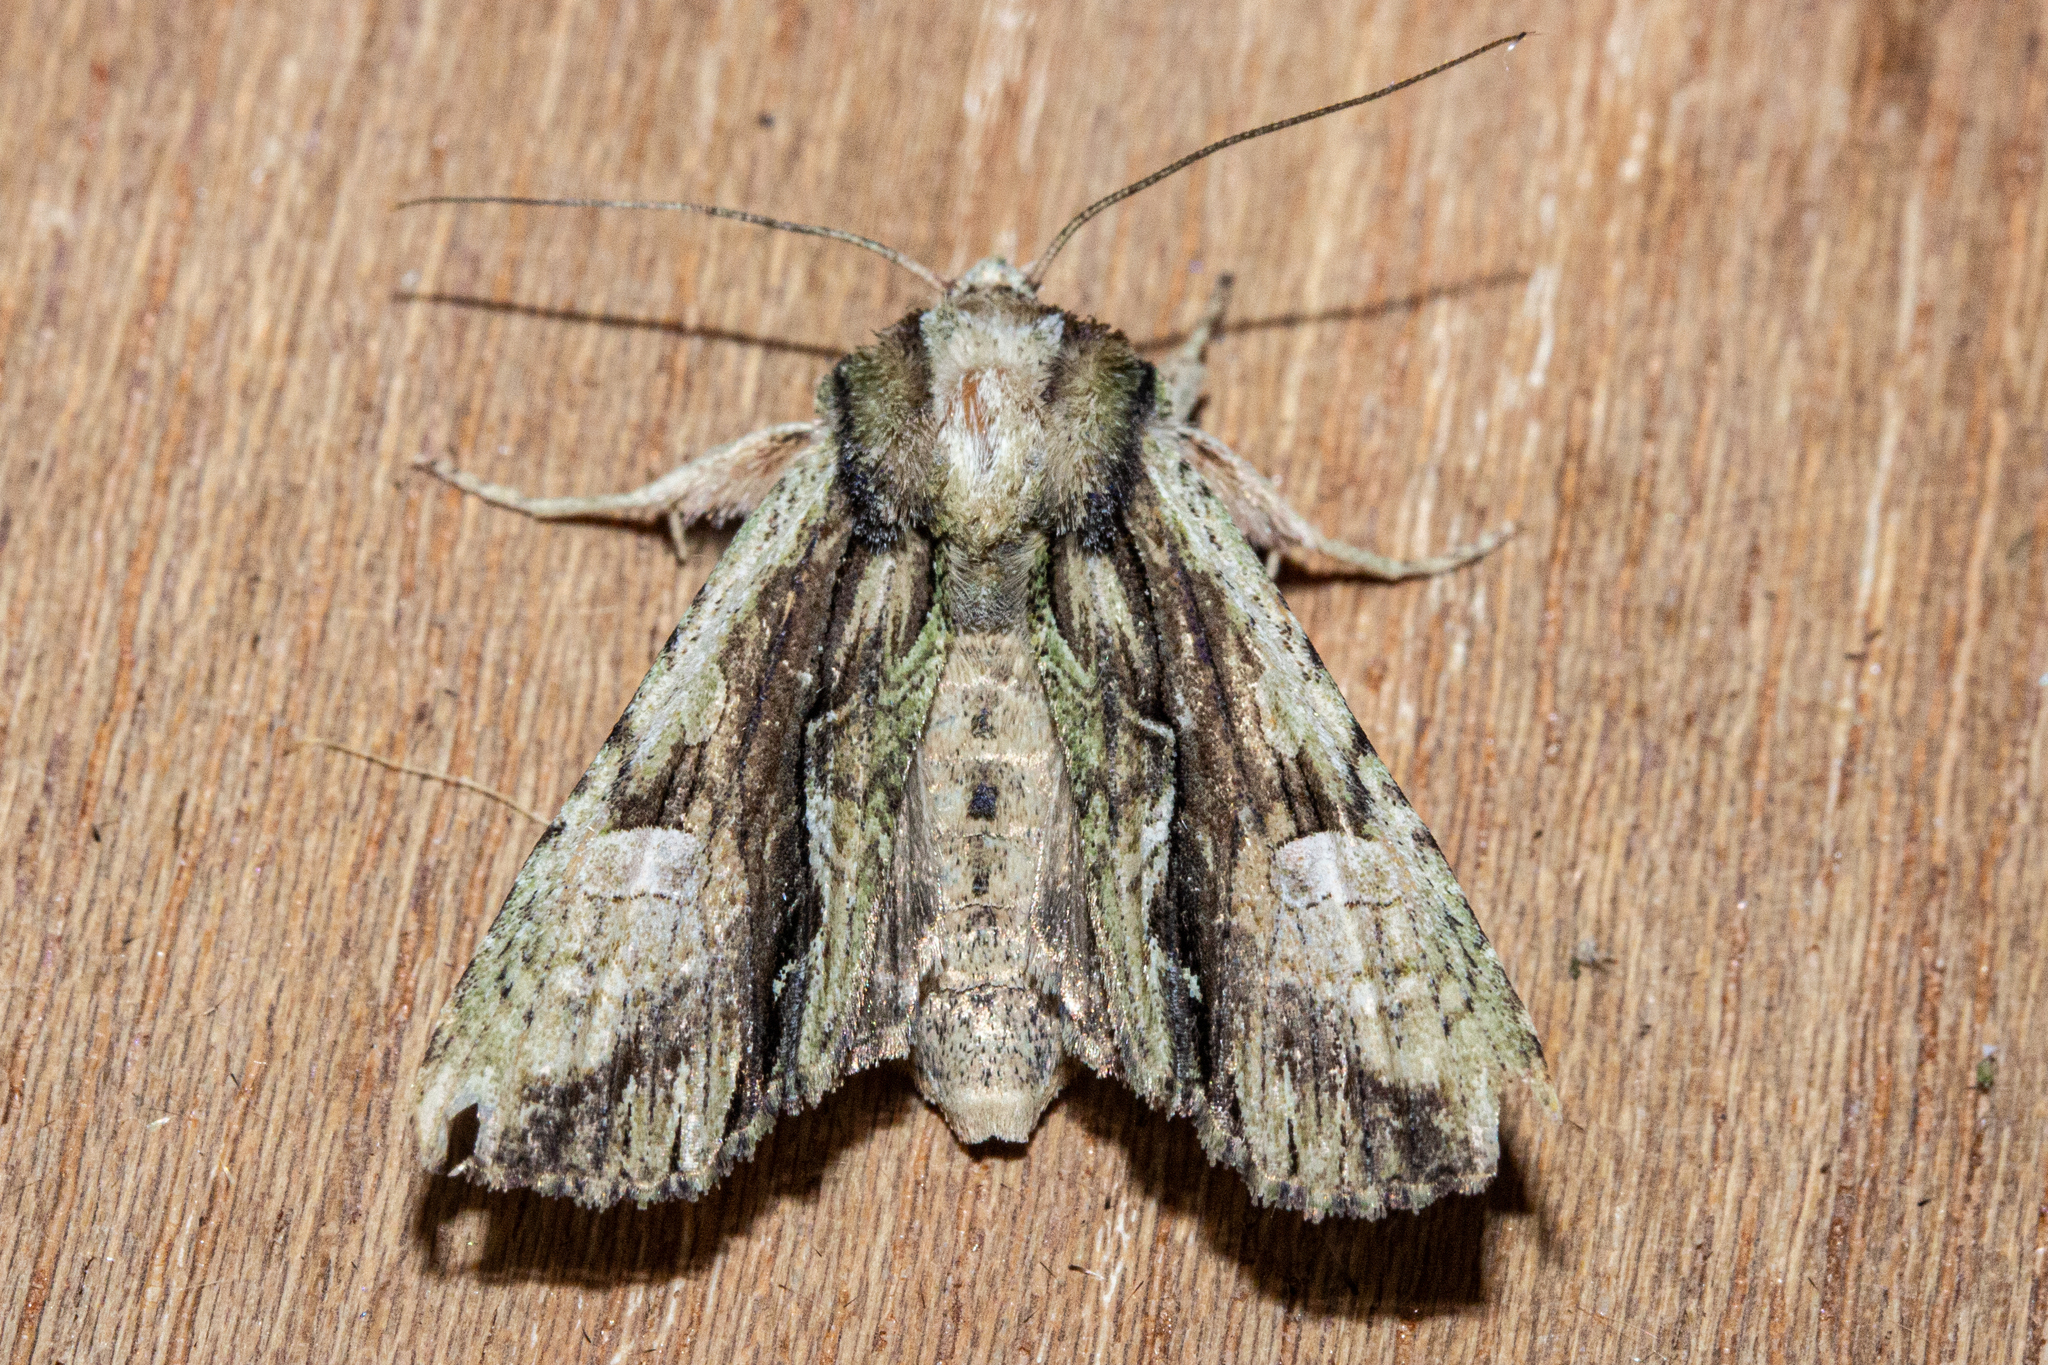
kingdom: Animalia
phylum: Arthropoda
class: Insecta
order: Lepidoptera
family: Noctuidae
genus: Meterana
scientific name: Meterana decorata
